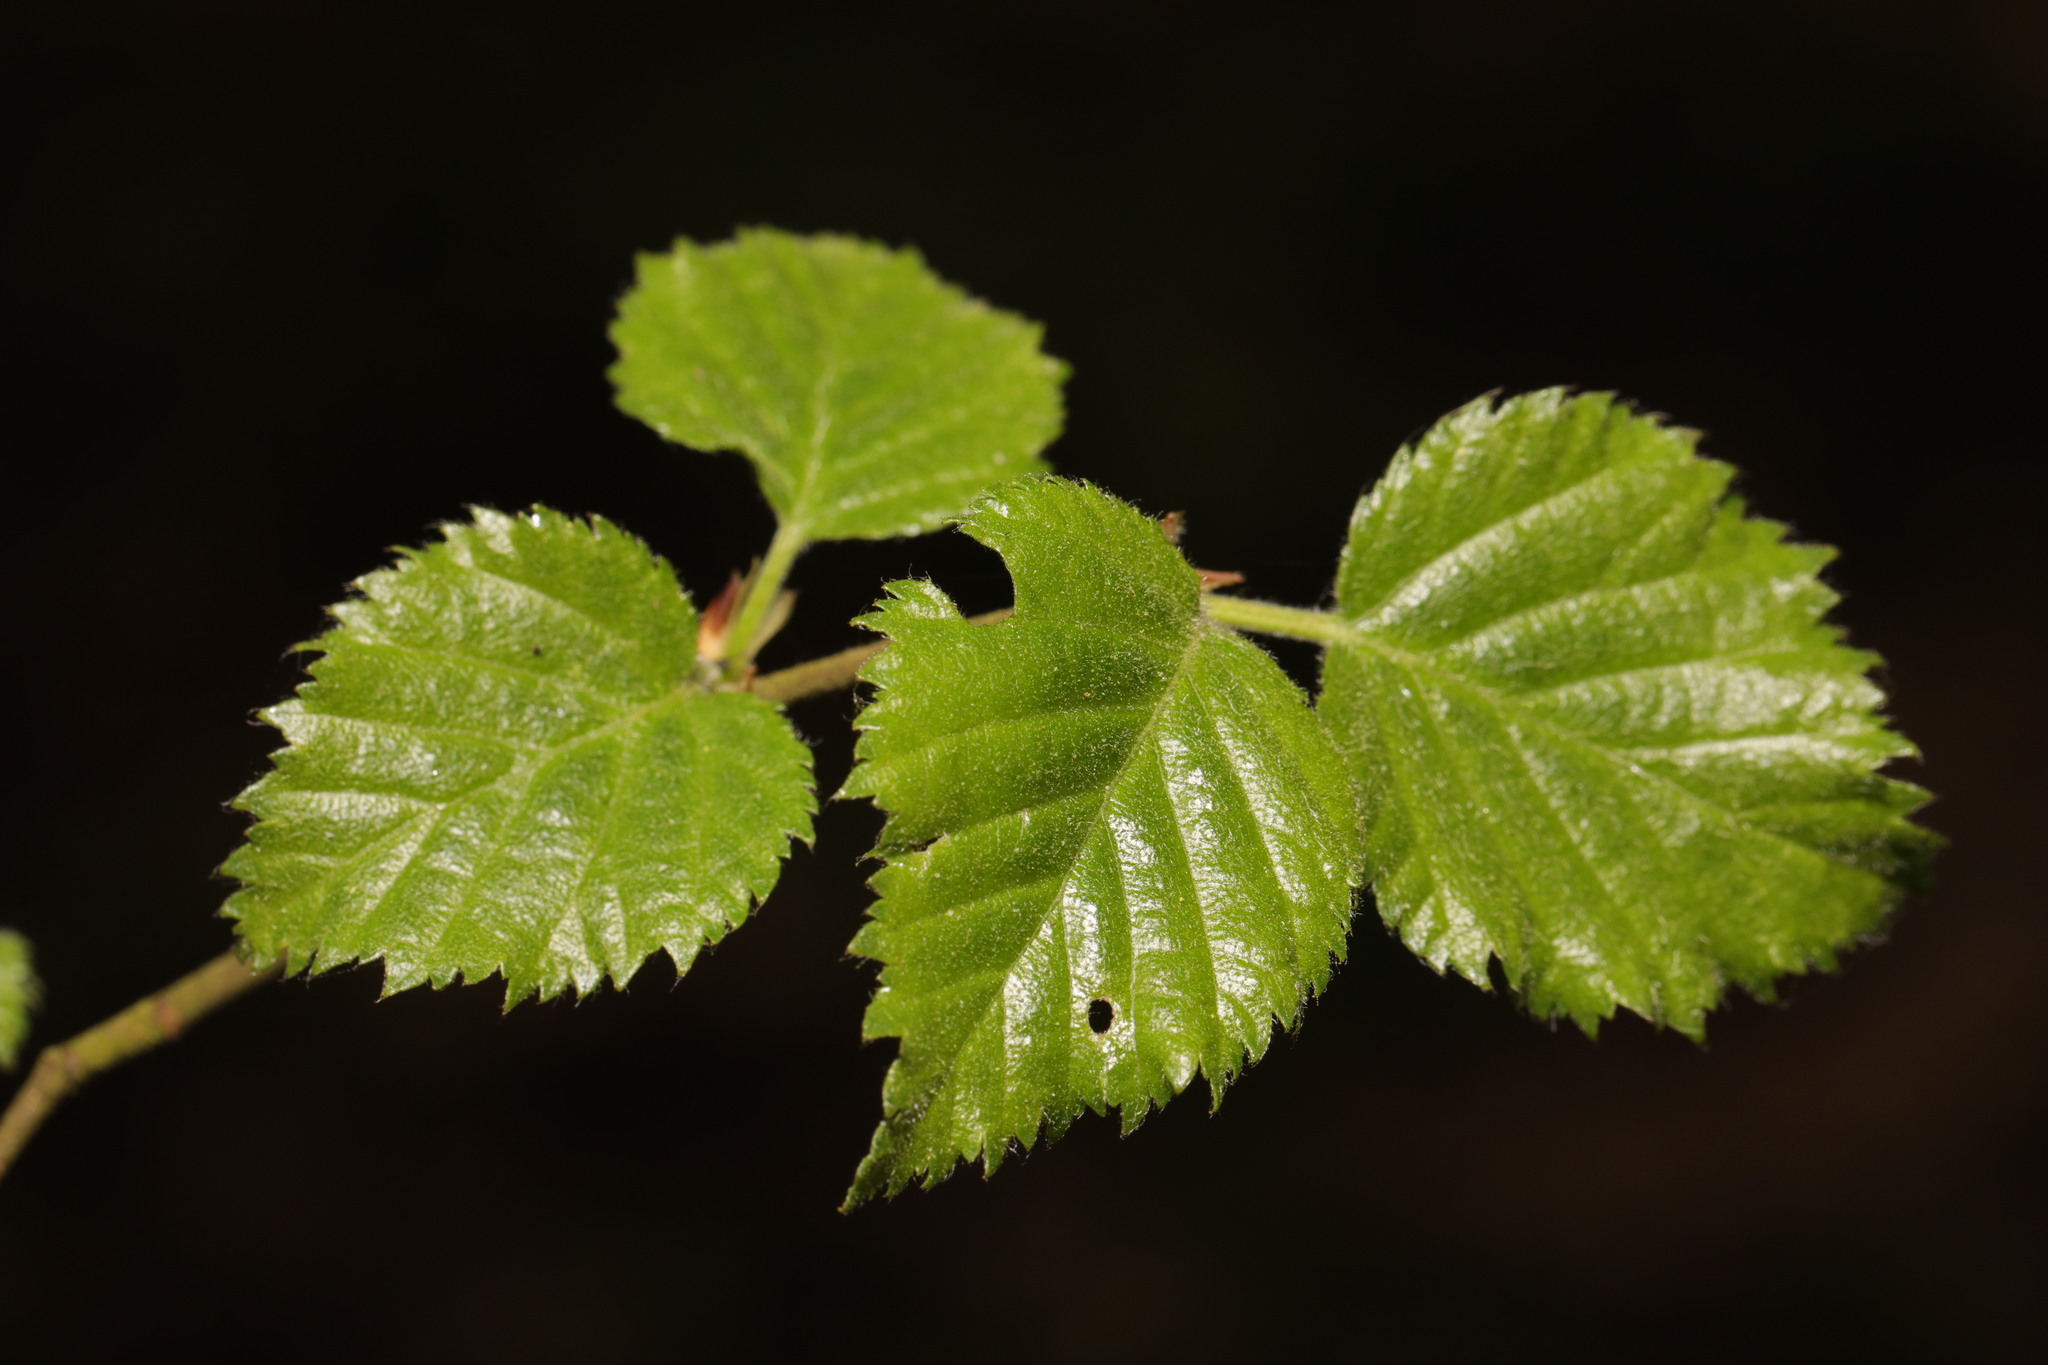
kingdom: Plantae
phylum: Tracheophyta
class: Magnoliopsida
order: Fagales
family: Betulaceae
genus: Betula
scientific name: Betula pubescens
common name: Downy birch
